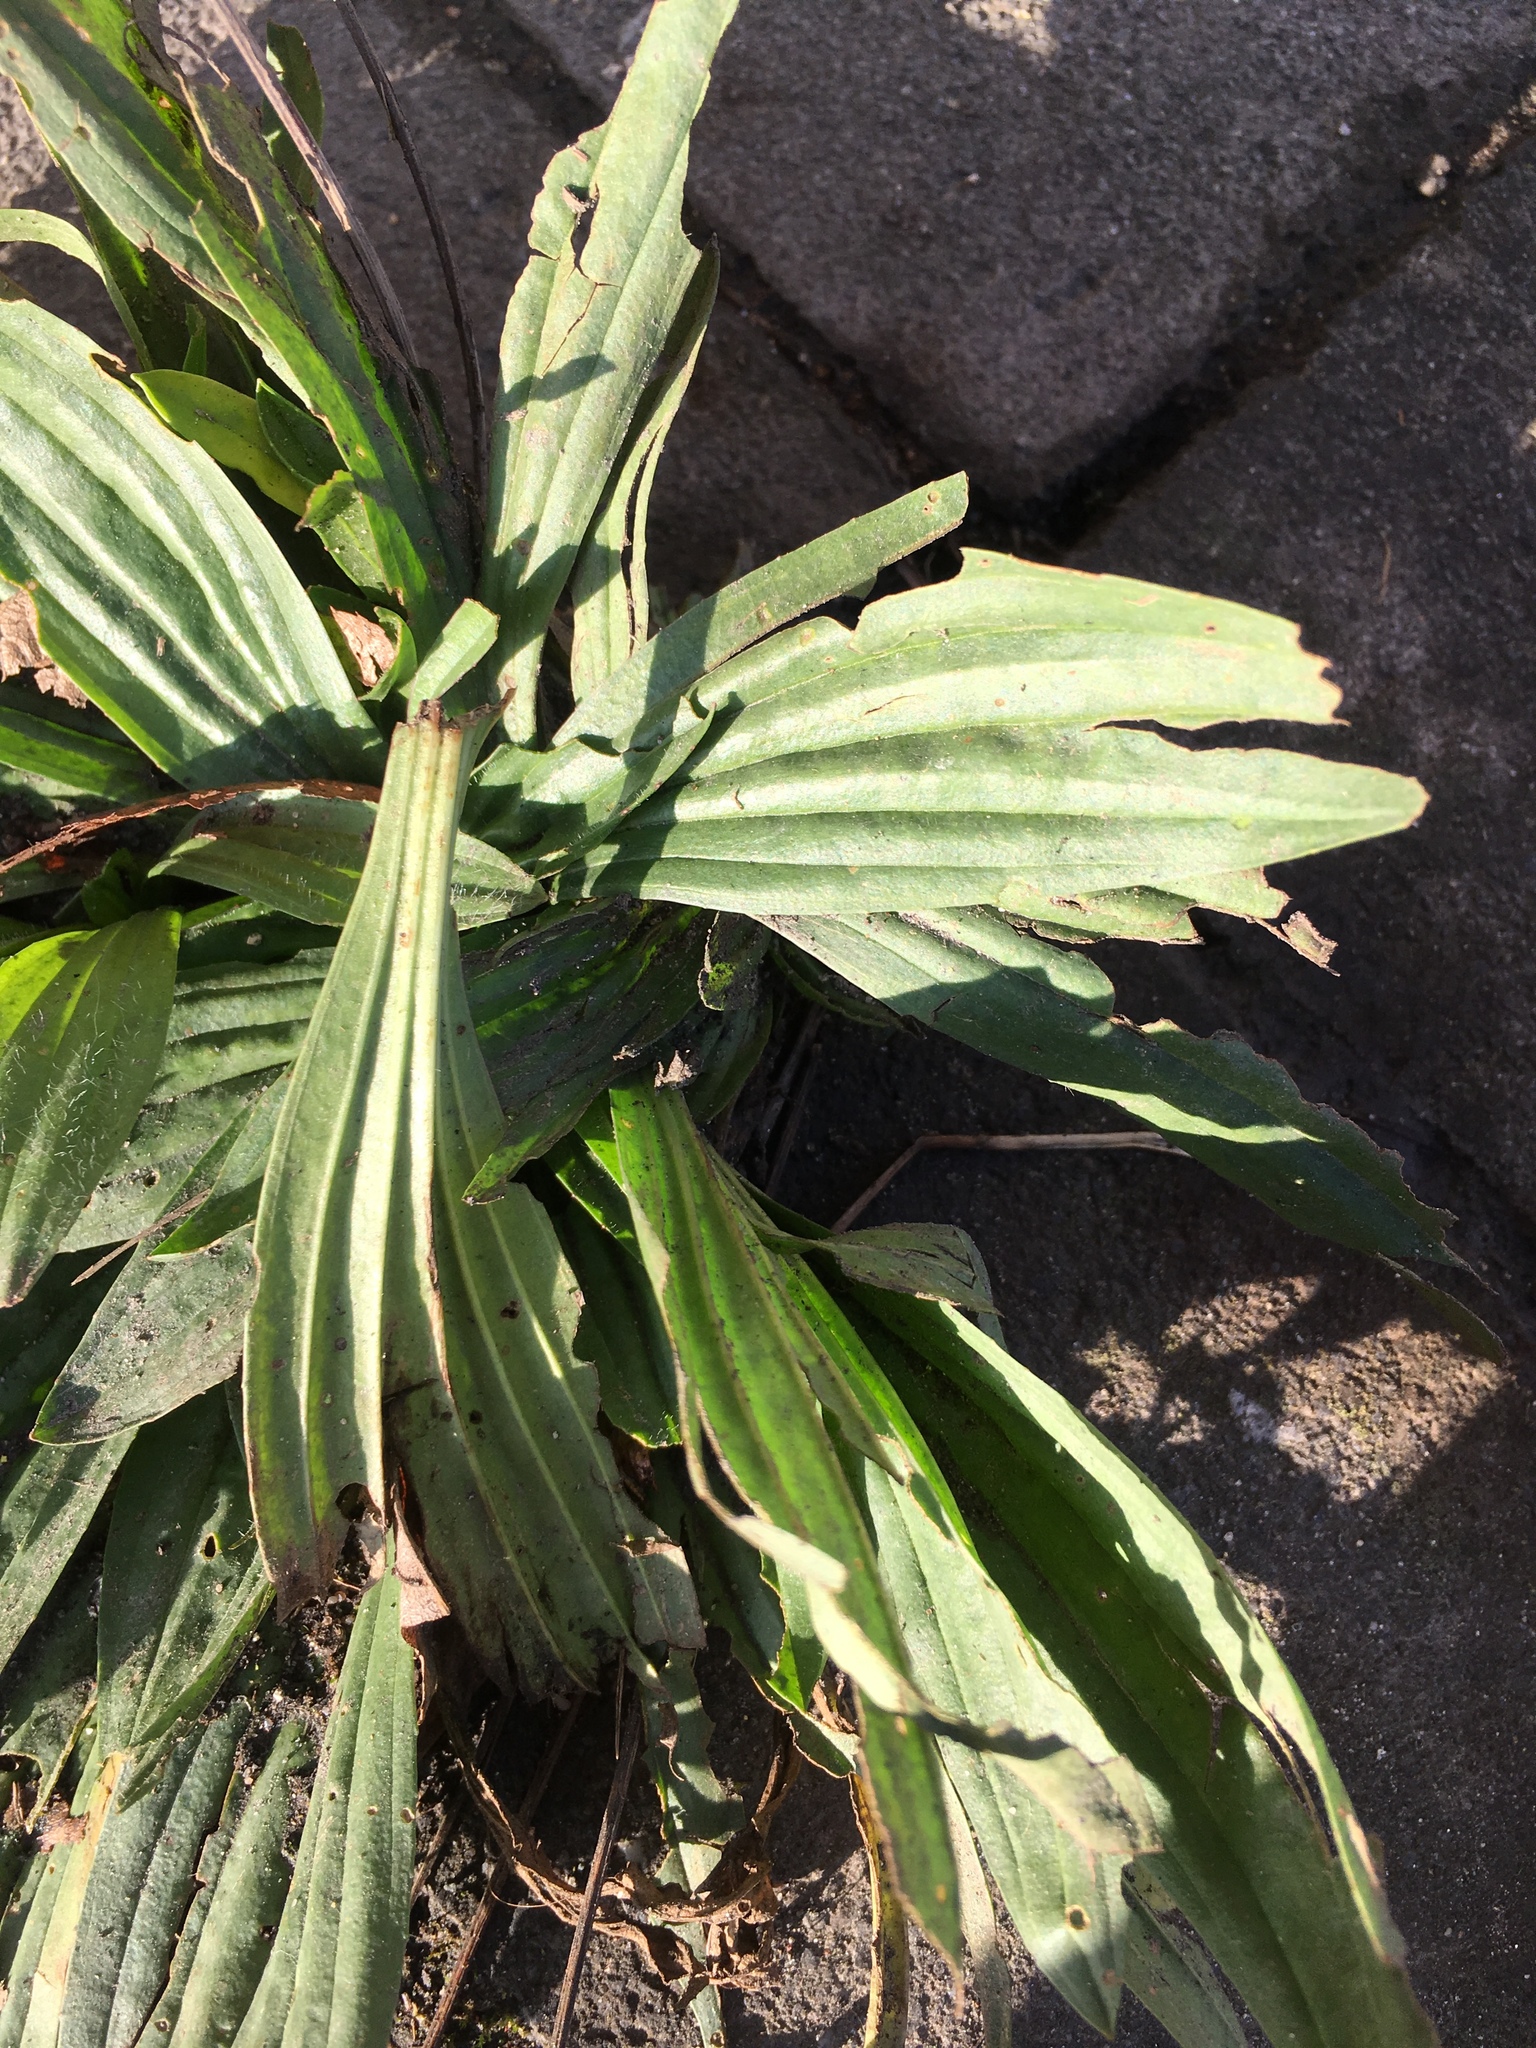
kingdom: Plantae
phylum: Tracheophyta
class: Magnoliopsida
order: Lamiales
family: Plantaginaceae
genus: Plantago
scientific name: Plantago lanceolata
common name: Ribwort plantain
